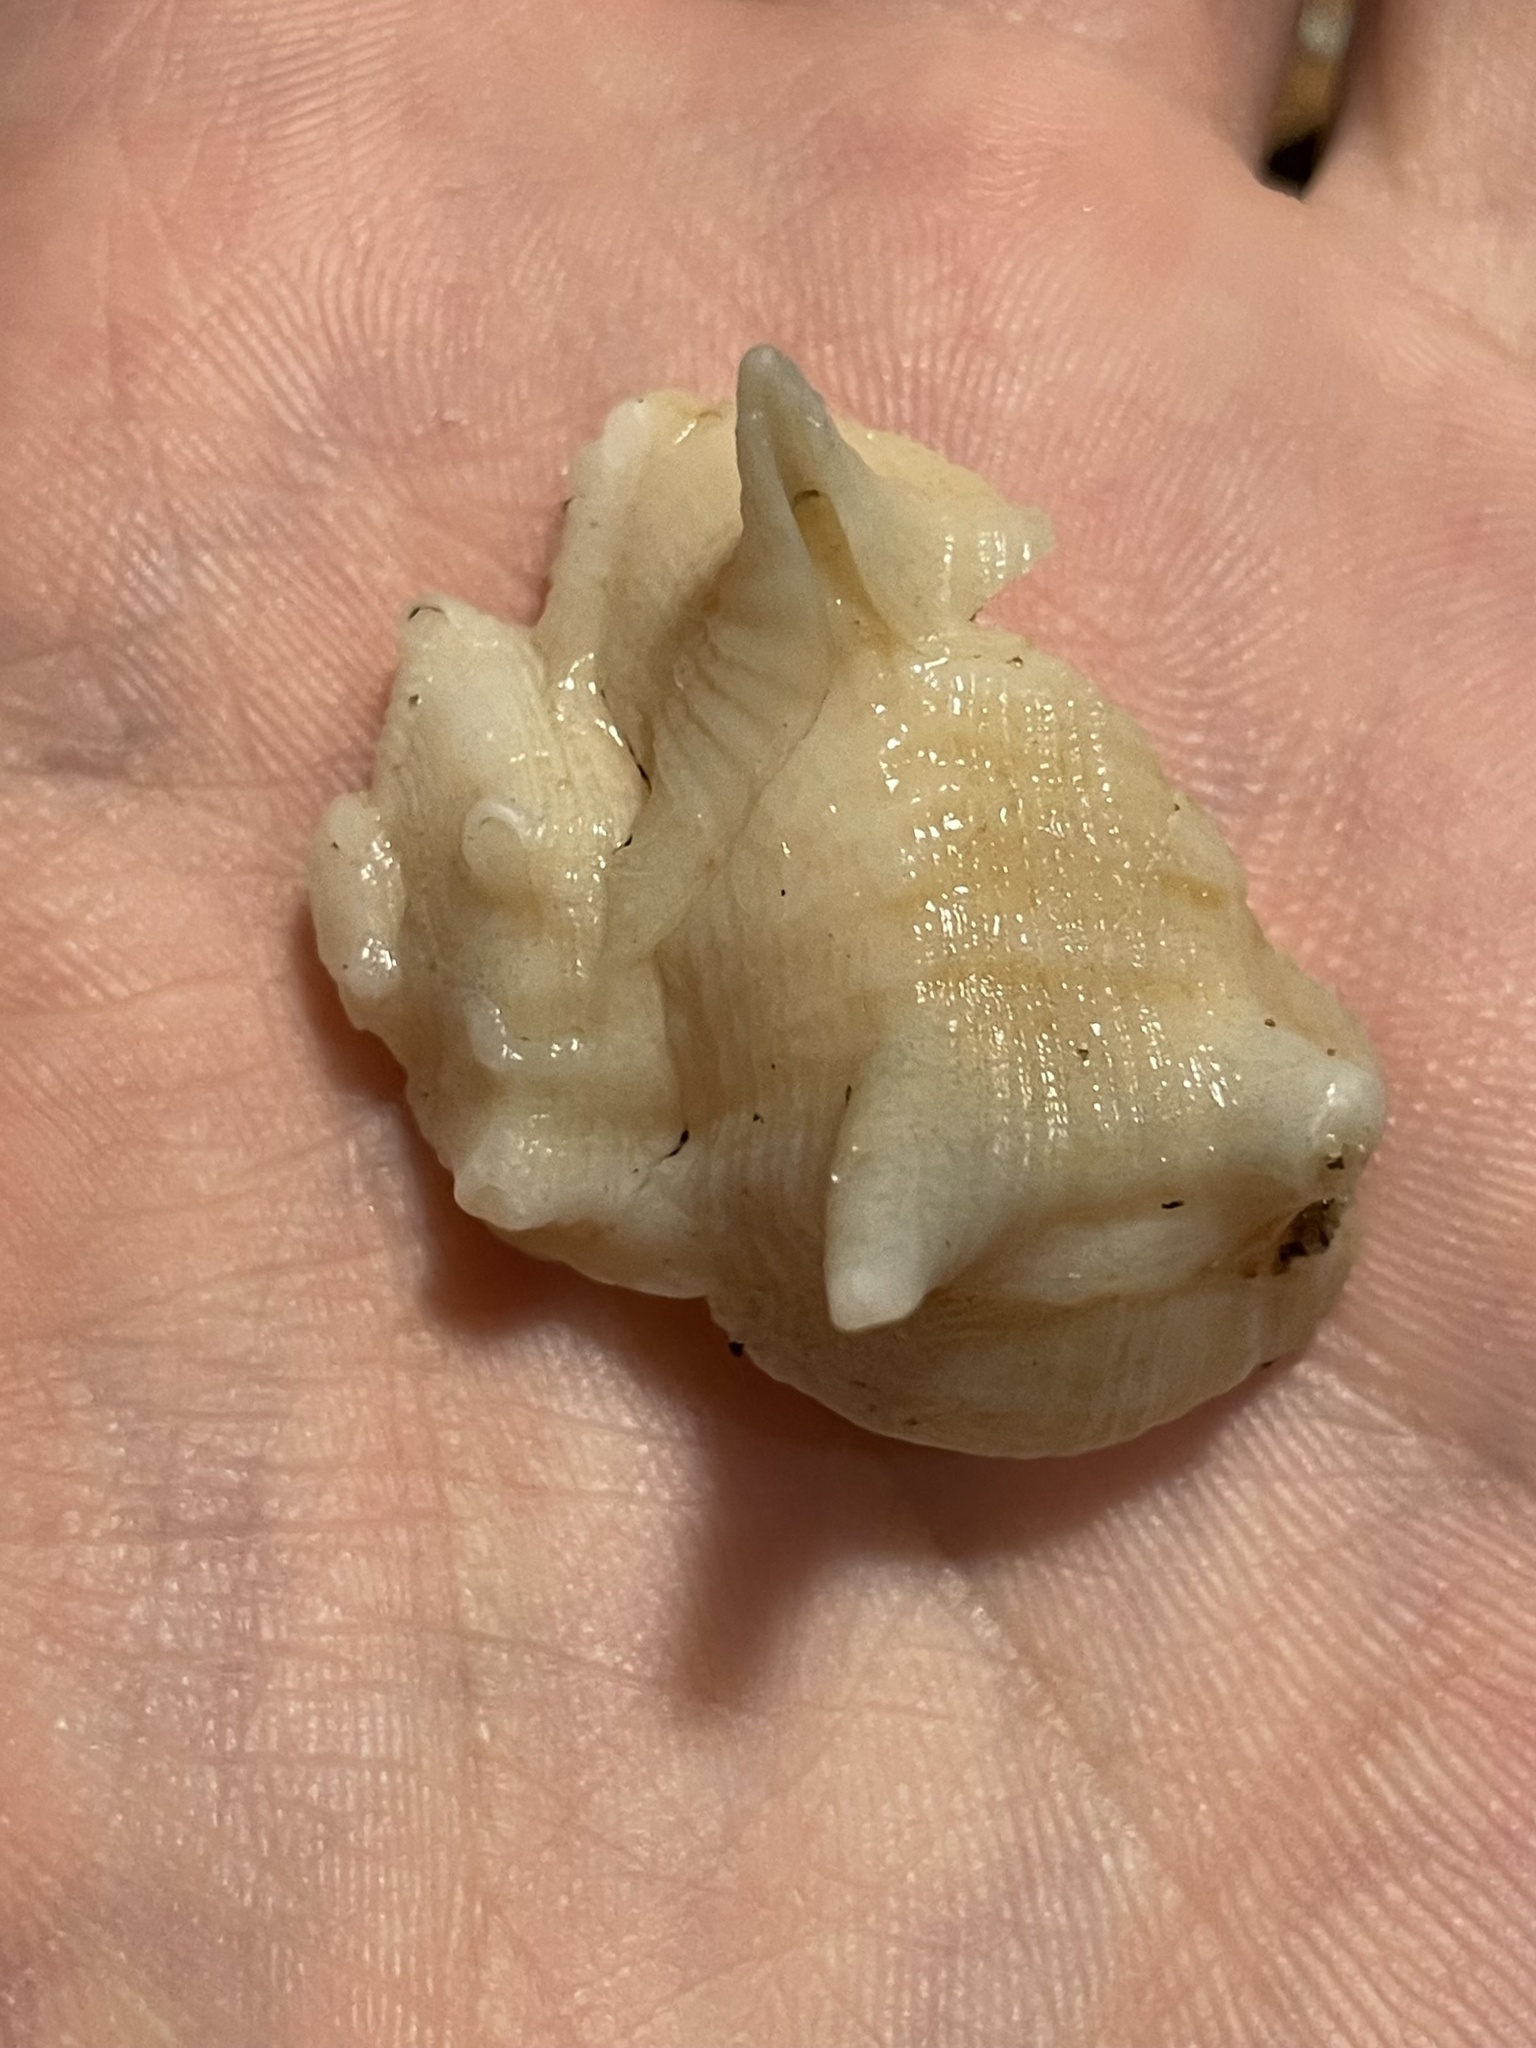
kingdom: Animalia
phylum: Mollusca
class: Gastropoda
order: Neogastropoda
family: Muricidae
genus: Bolinus
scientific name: Bolinus brandaris
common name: Dye murex
